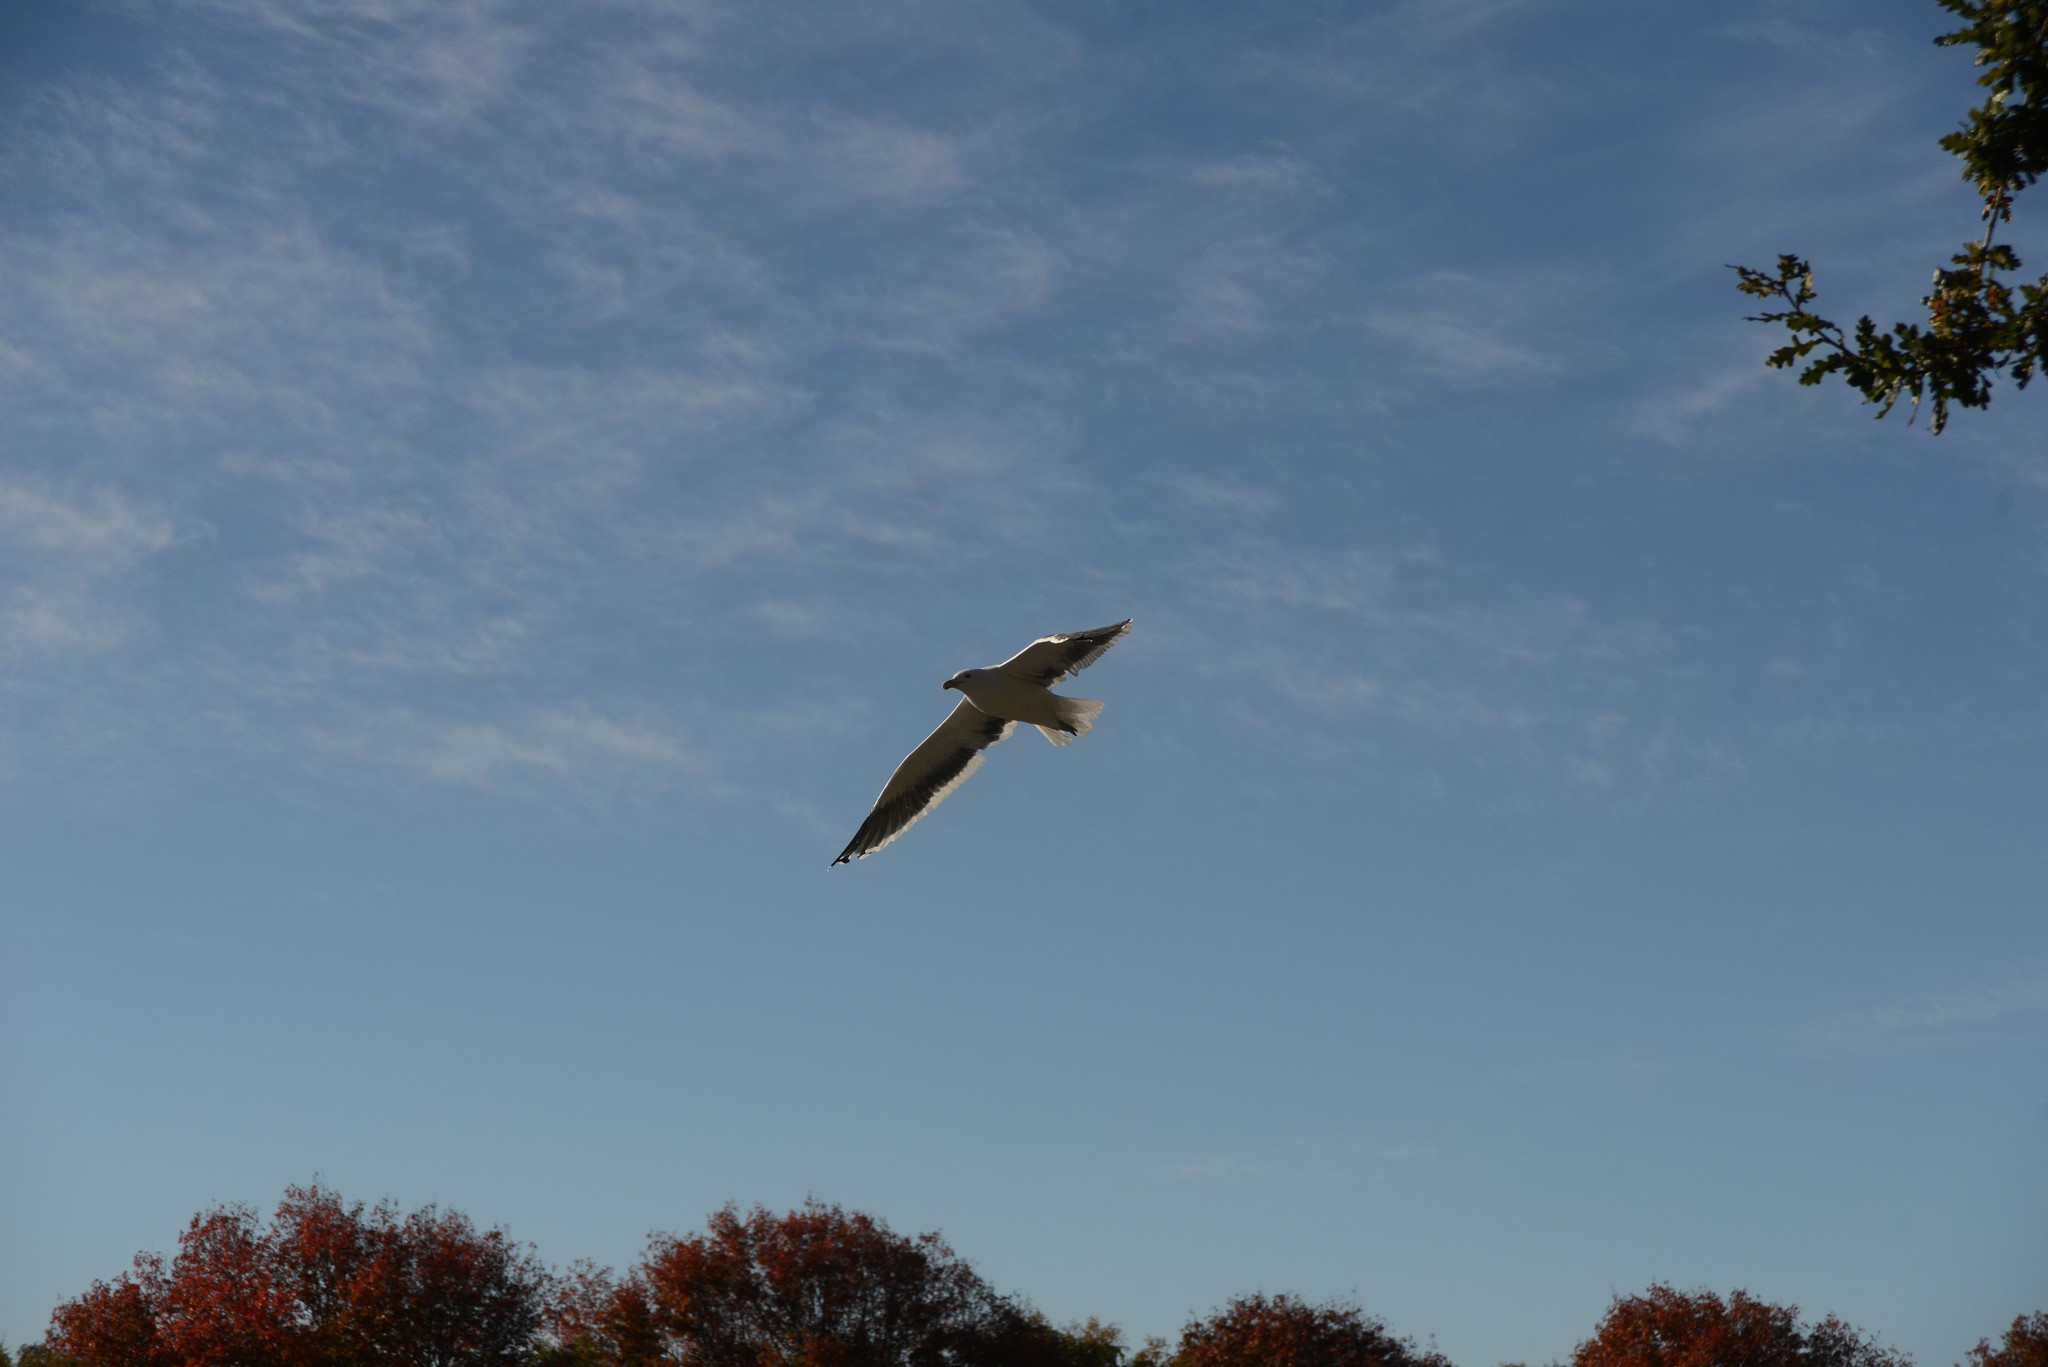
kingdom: Animalia
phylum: Chordata
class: Aves
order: Charadriiformes
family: Laridae
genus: Larus
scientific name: Larus dominicanus
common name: Kelp gull
